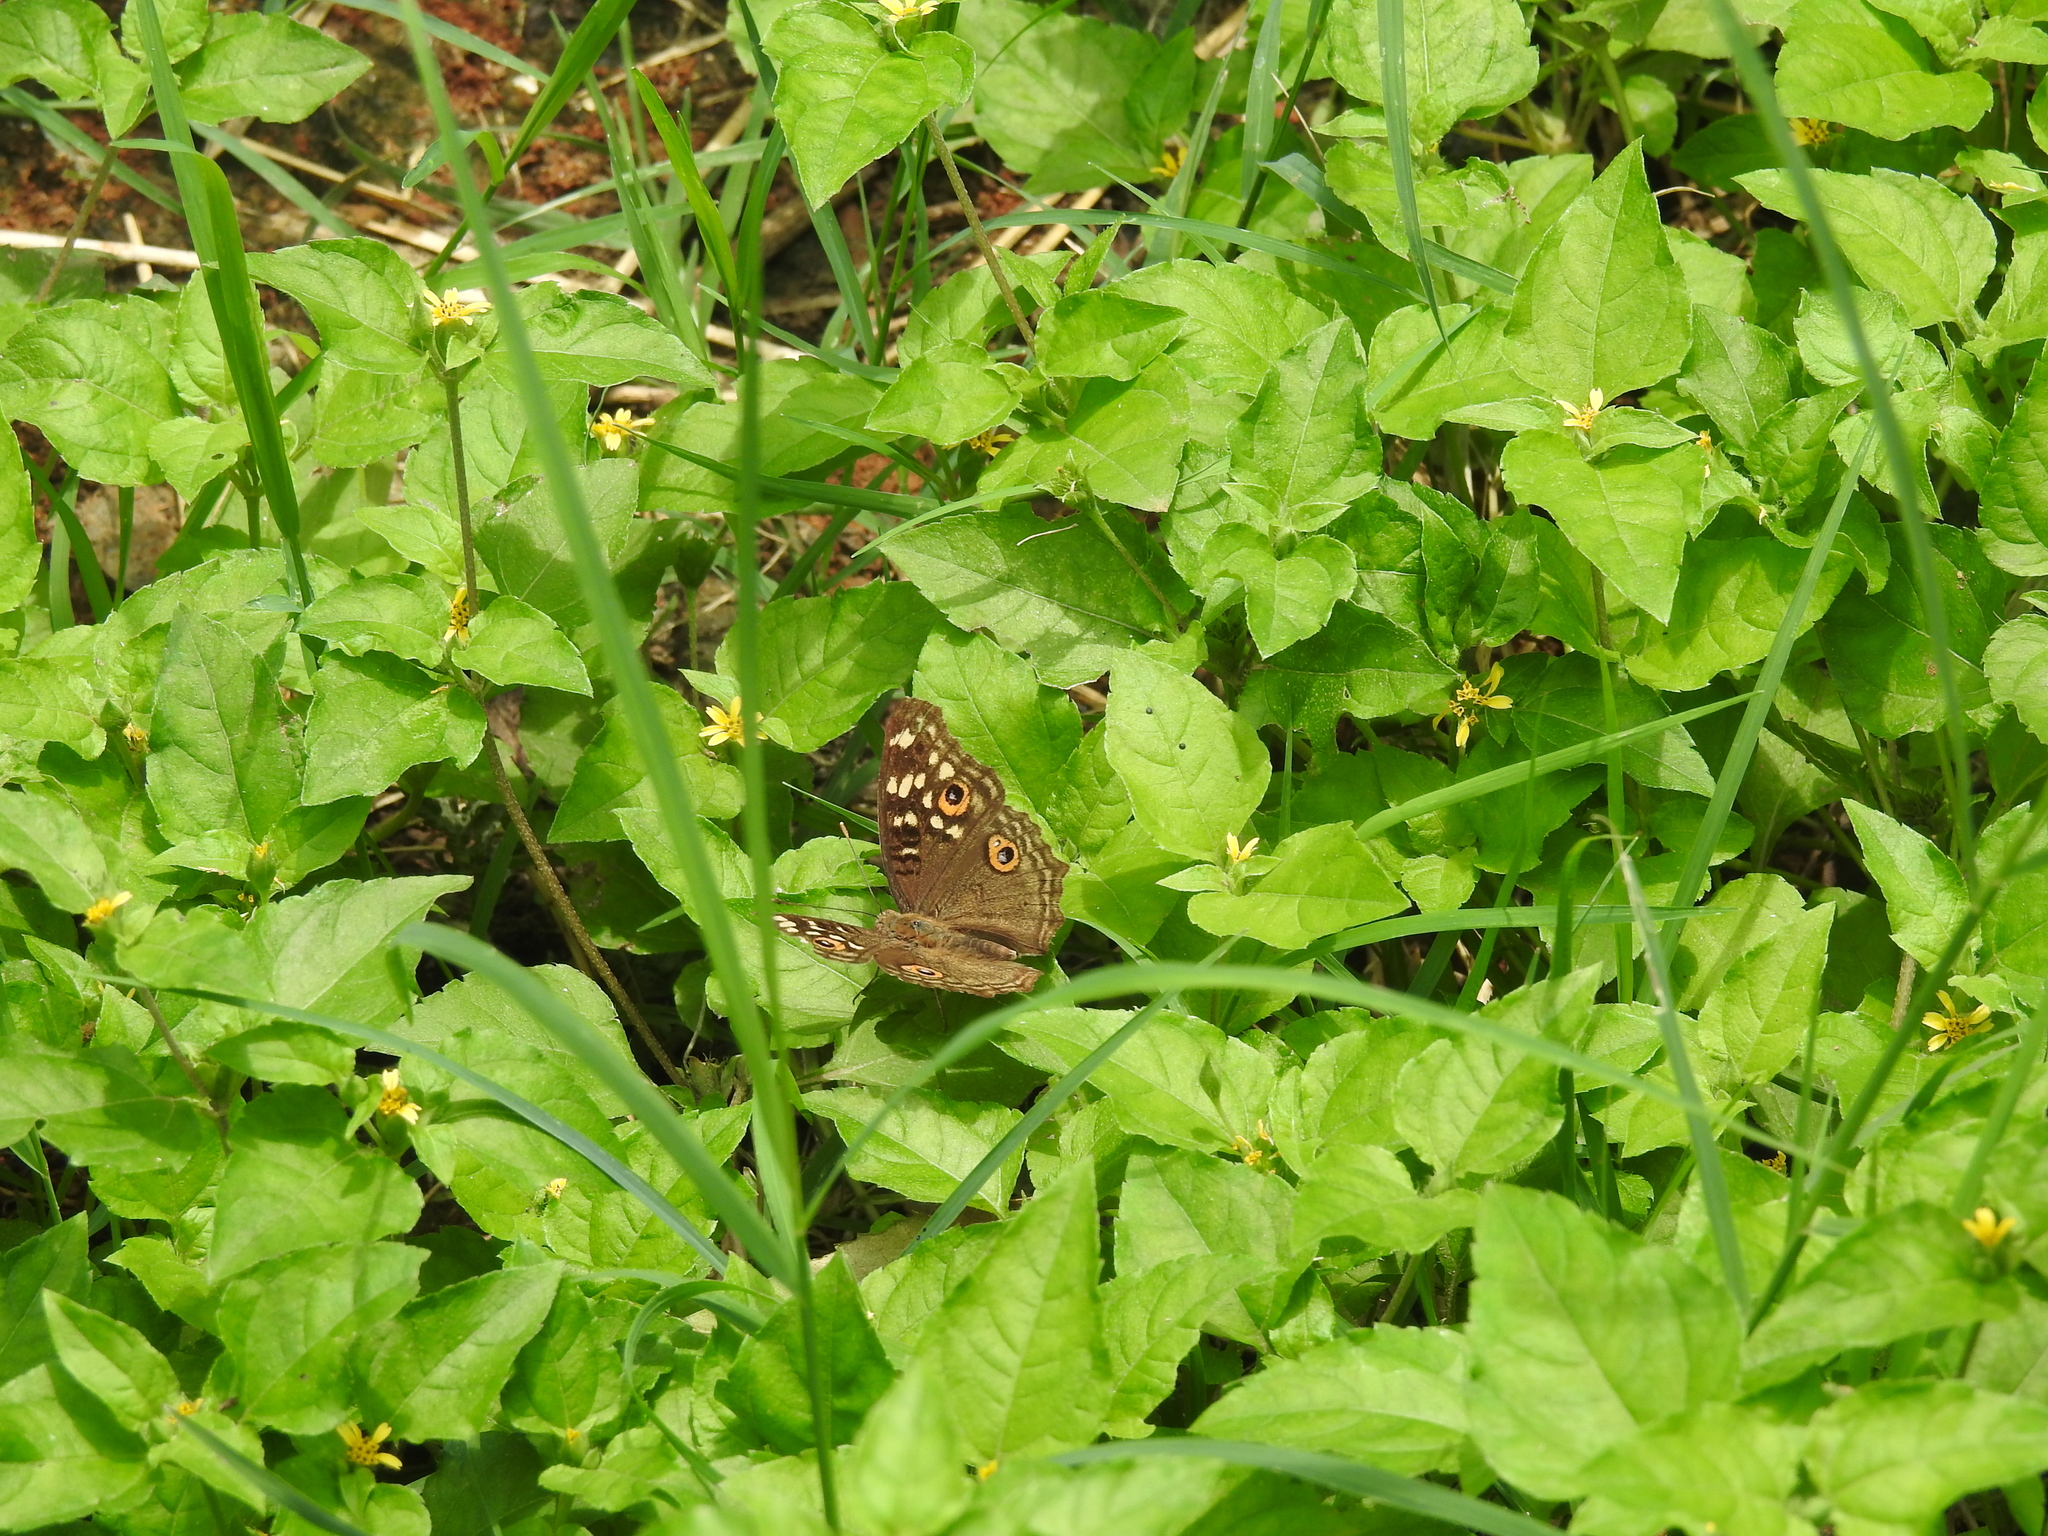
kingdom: Animalia
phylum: Arthropoda
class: Insecta
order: Lepidoptera
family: Nymphalidae
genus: Junonia
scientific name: Junonia lemonias
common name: Lemon pansy
